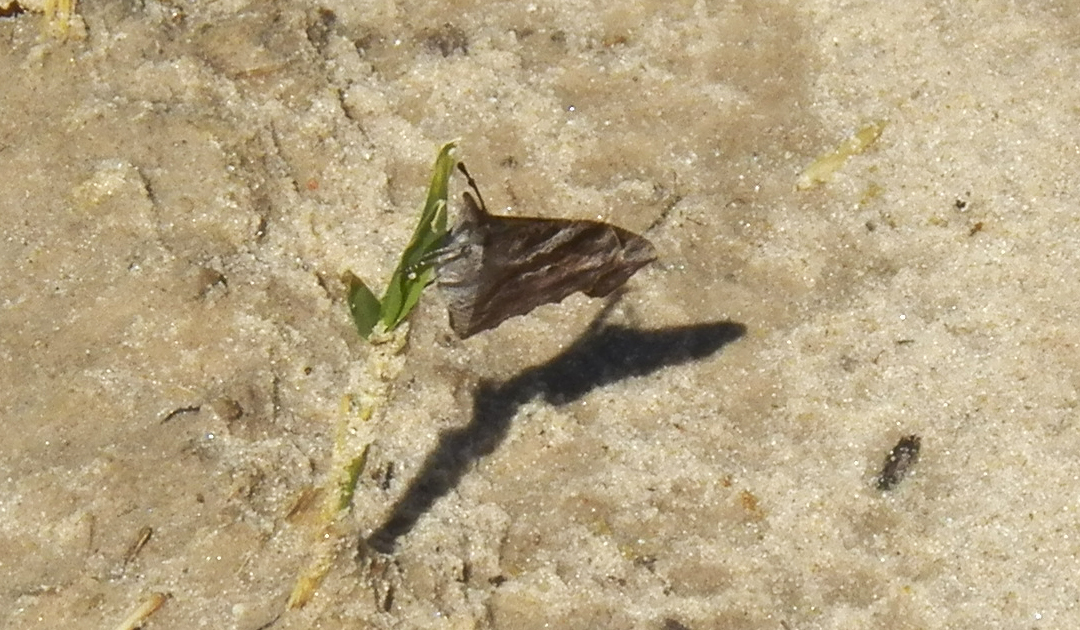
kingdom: Animalia
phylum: Arthropoda
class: Insecta
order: Lepidoptera
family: Nymphalidae
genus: Libytheana
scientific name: Libytheana carinenta
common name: American snout
